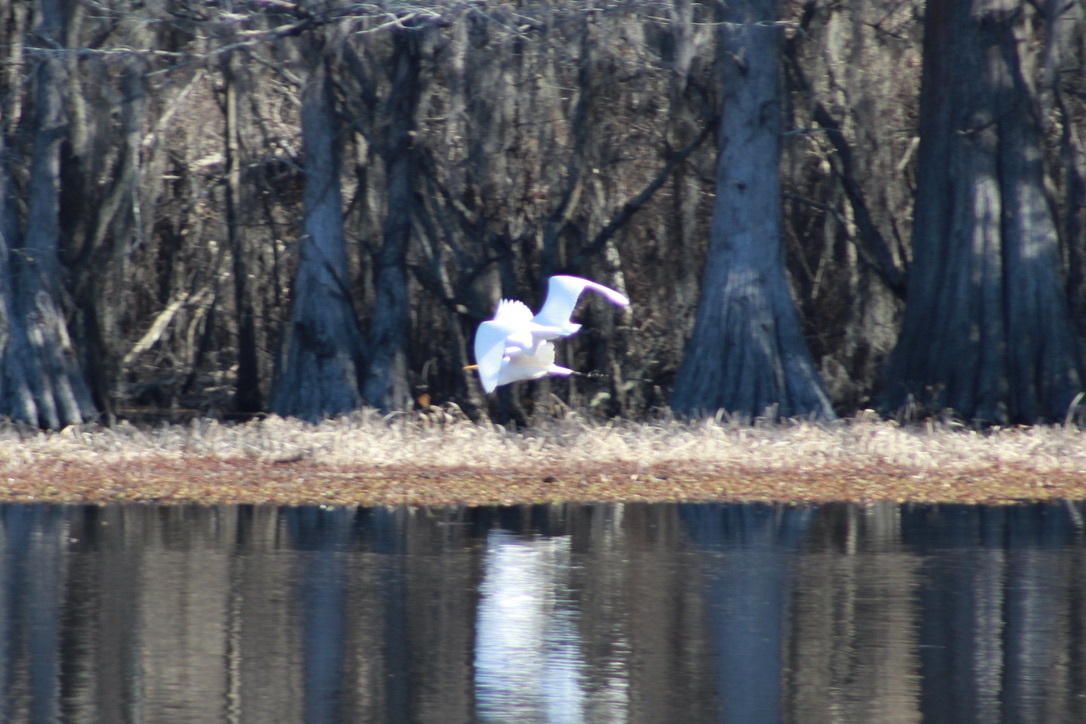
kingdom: Animalia
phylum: Chordata
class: Aves
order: Pelecaniformes
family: Ardeidae
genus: Ardea
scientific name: Ardea alba
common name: Great egret
